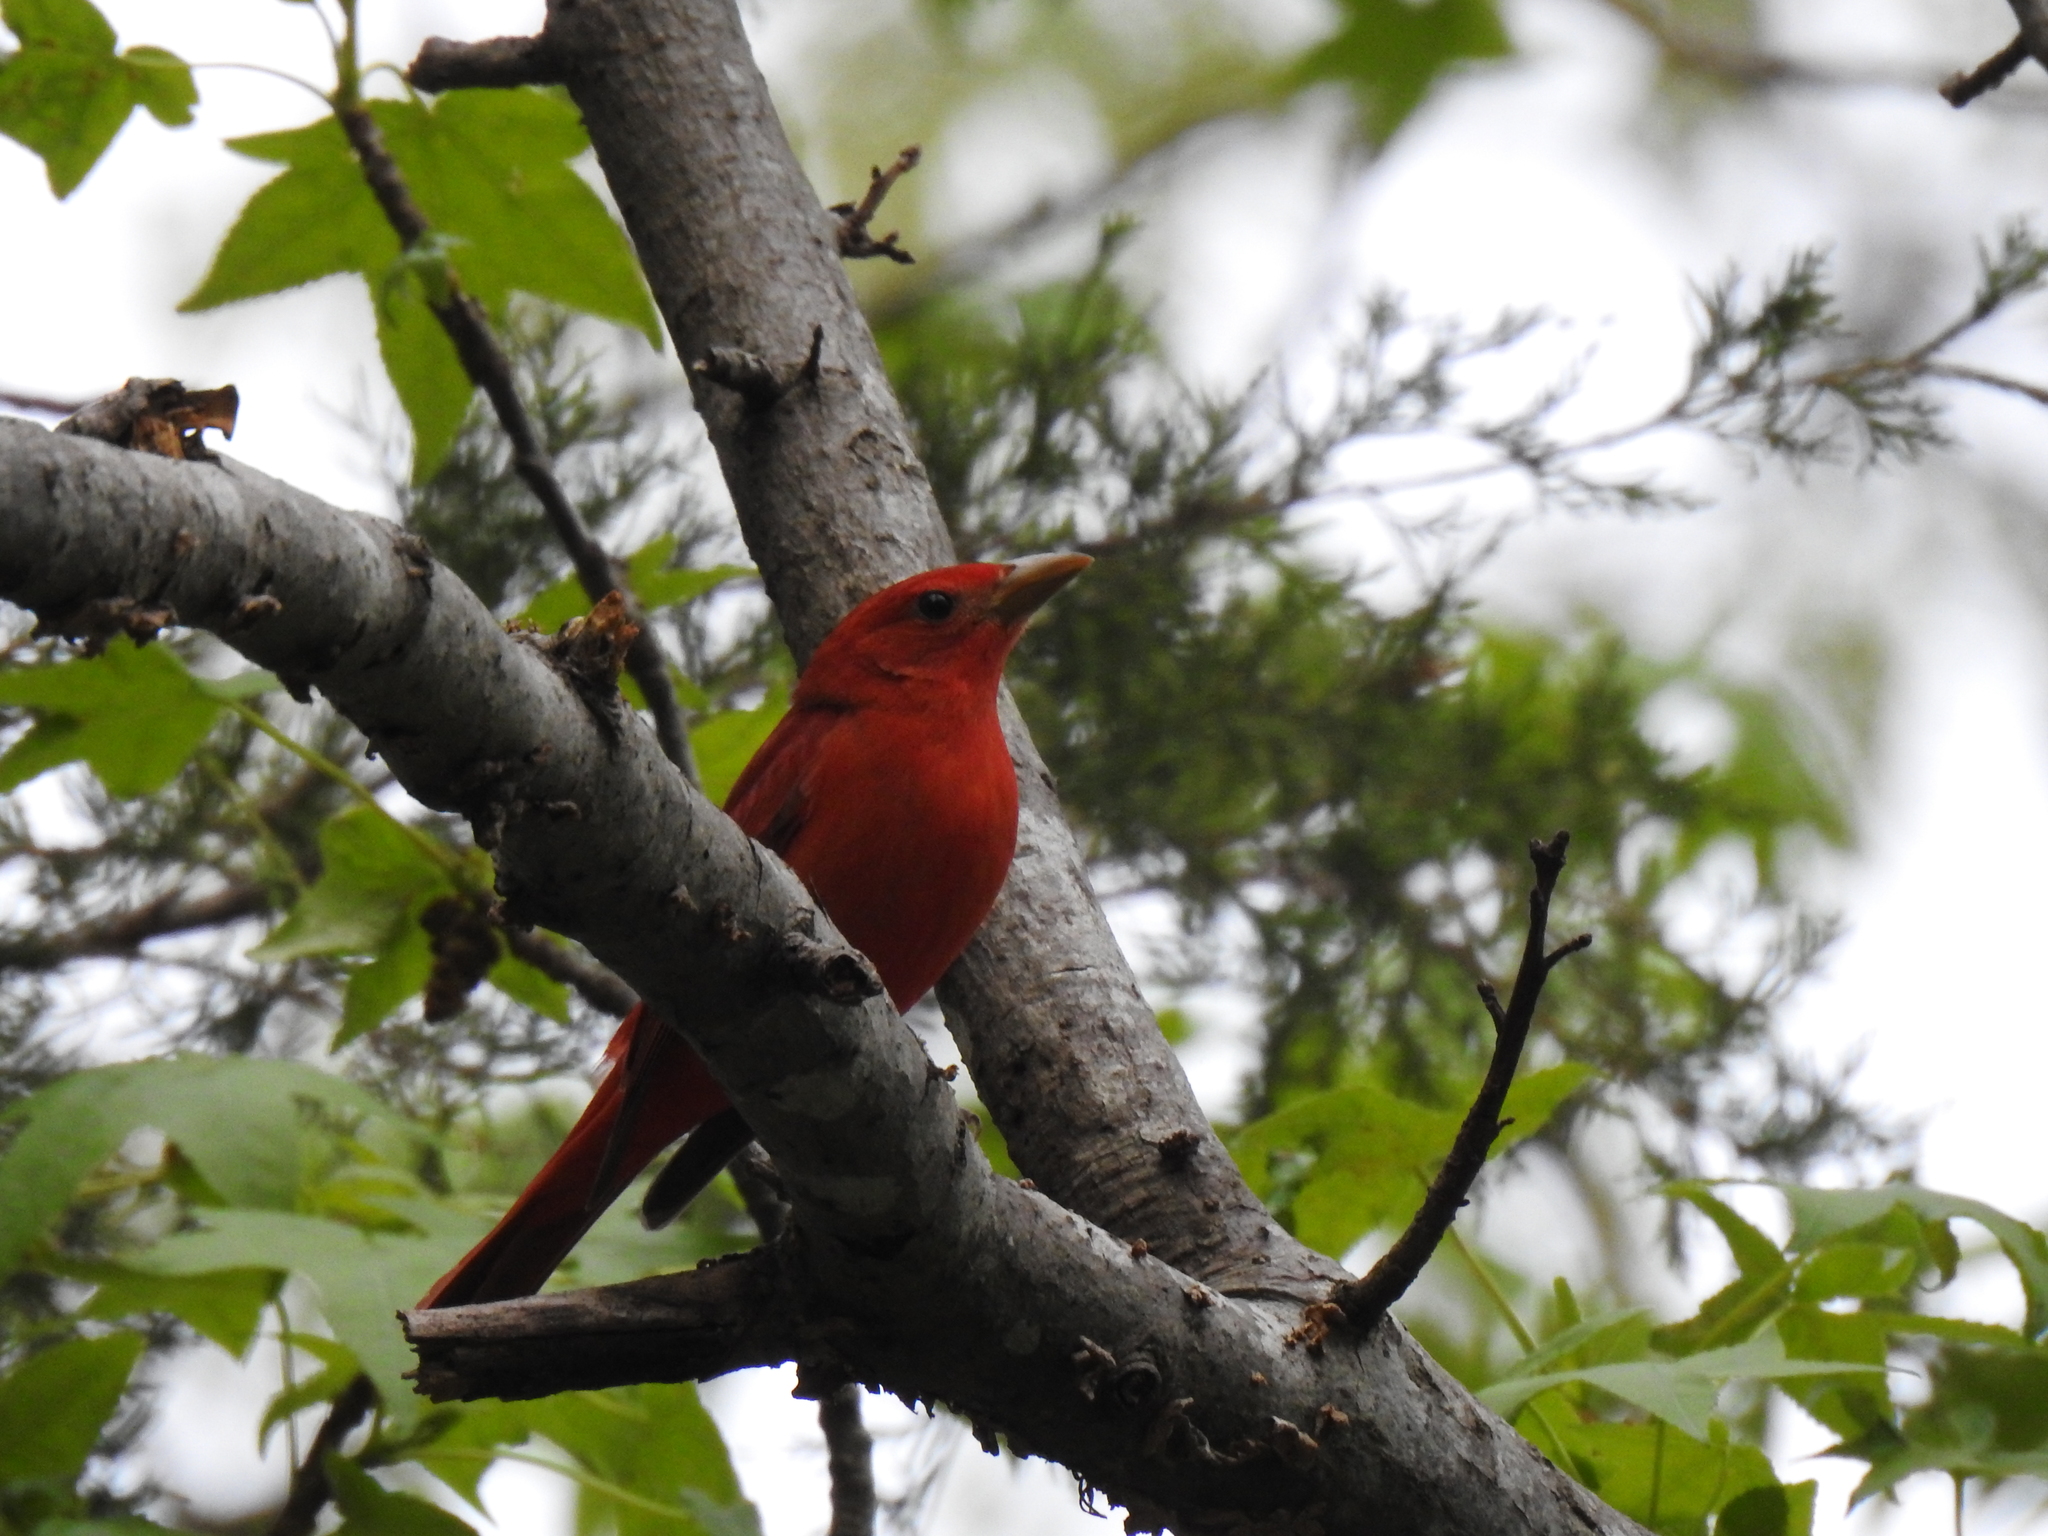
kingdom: Animalia
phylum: Chordata
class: Aves
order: Passeriformes
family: Cardinalidae
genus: Piranga
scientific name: Piranga rubra
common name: Summer tanager
